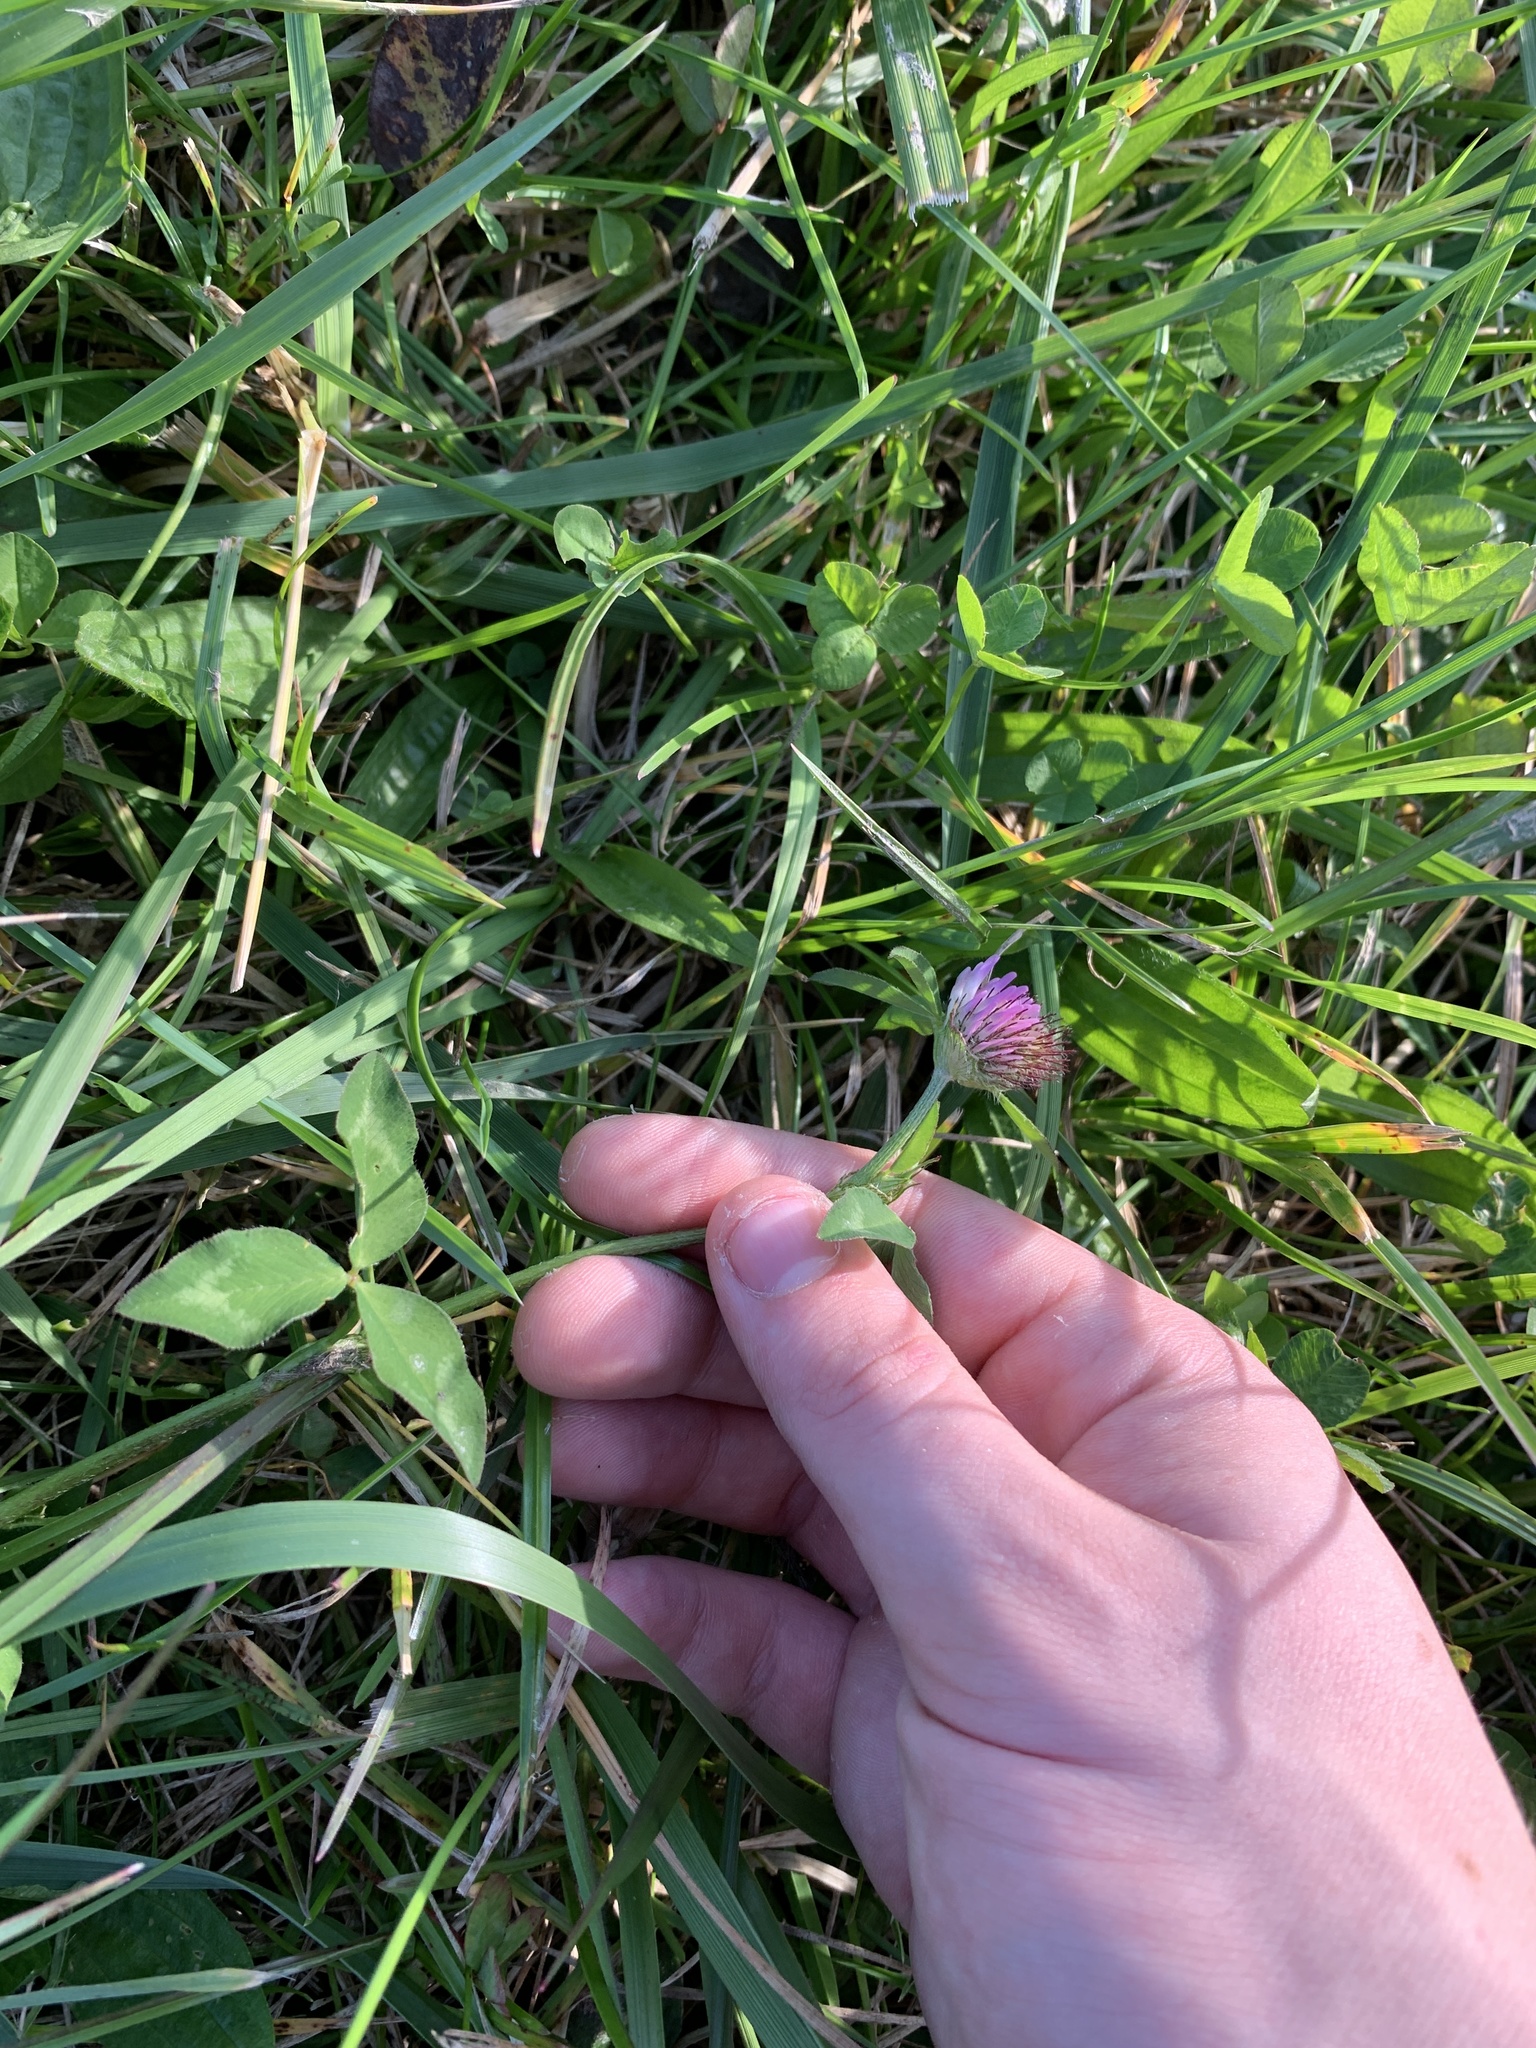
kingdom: Plantae
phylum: Tracheophyta
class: Magnoliopsida
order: Fabales
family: Fabaceae
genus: Trifolium
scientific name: Trifolium pratense
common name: Red clover
